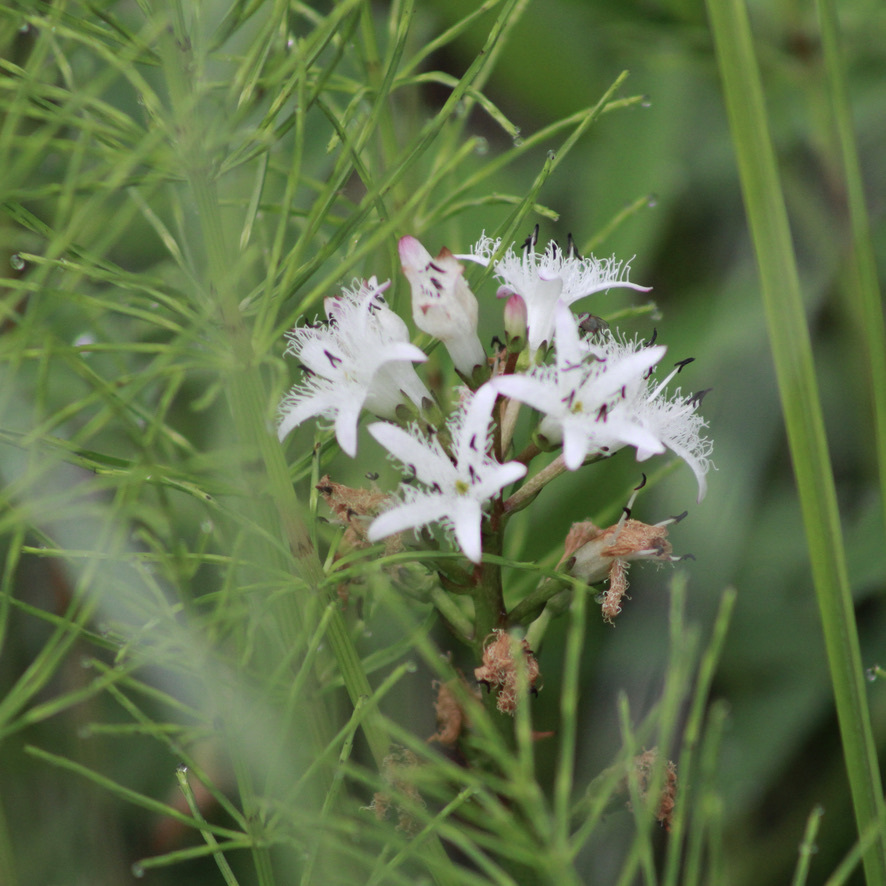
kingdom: Plantae
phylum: Tracheophyta
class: Magnoliopsida
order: Asterales
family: Menyanthaceae
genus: Menyanthes
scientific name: Menyanthes trifoliata
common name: Bogbean
